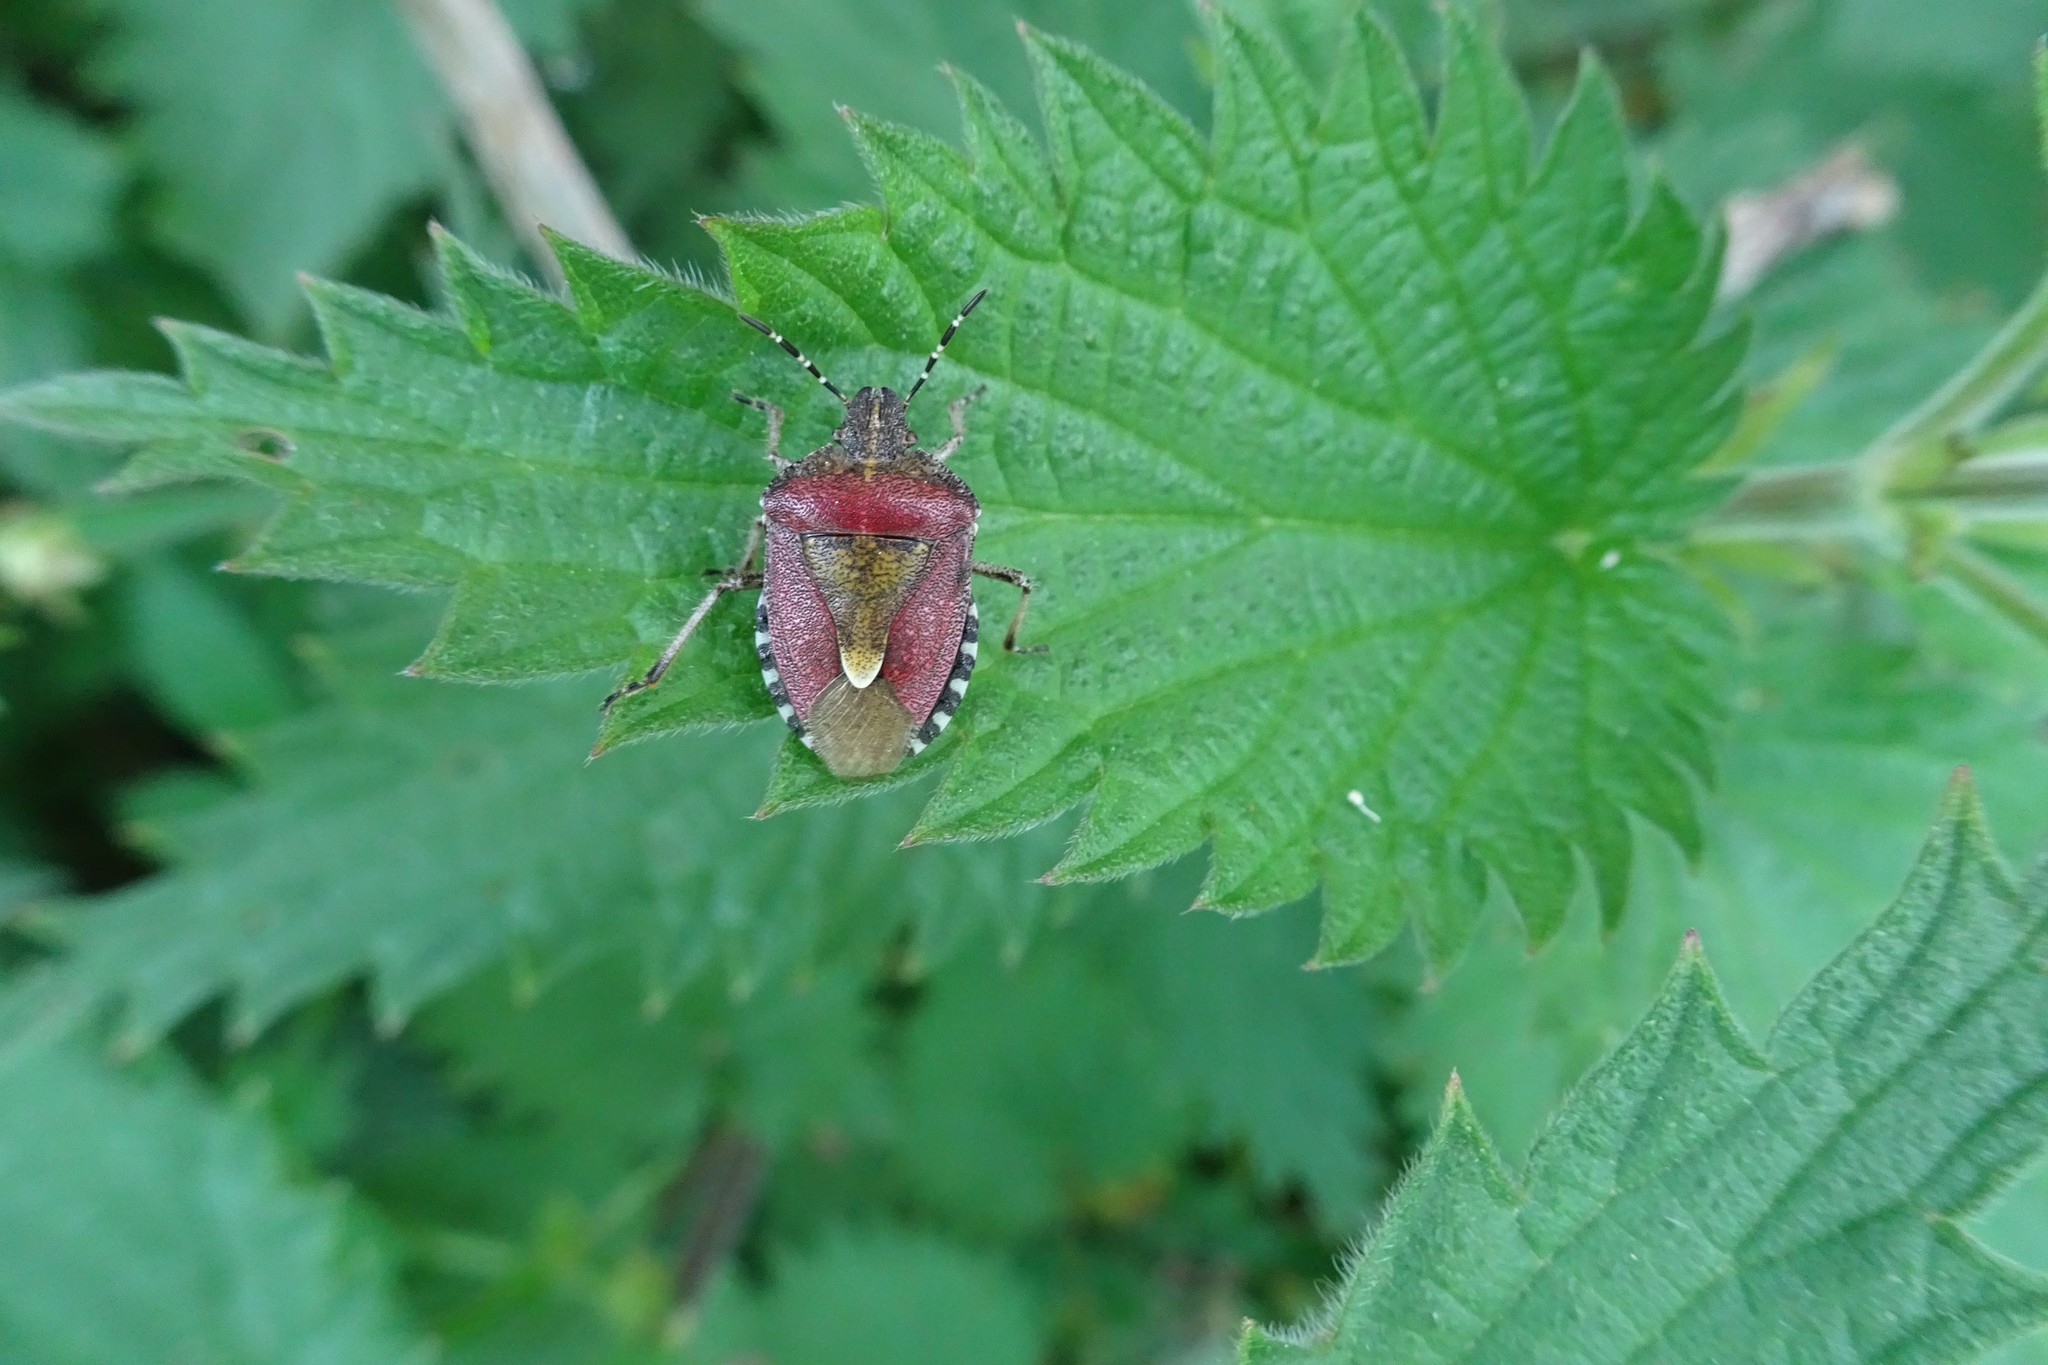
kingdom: Animalia
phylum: Arthropoda
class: Insecta
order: Hemiptera
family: Pentatomidae
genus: Dolycoris
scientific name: Dolycoris baccarum
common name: Sloe bug
